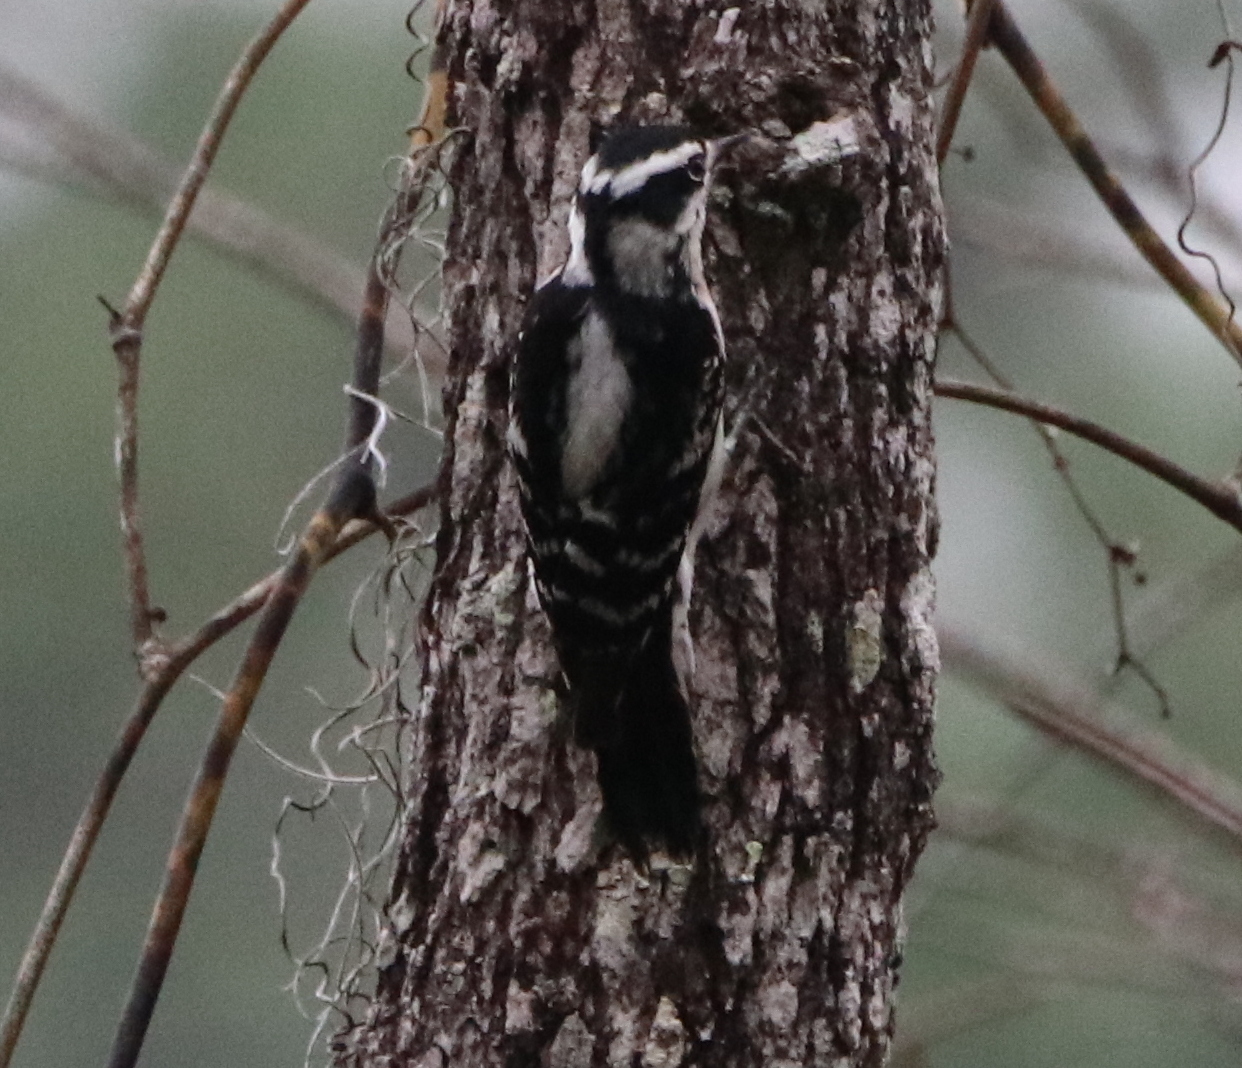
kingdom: Animalia
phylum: Chordata
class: Aves
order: Piciformes
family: Picidae
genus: Dryobates
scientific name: Dryobates pubescens
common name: Downy woodpecker
